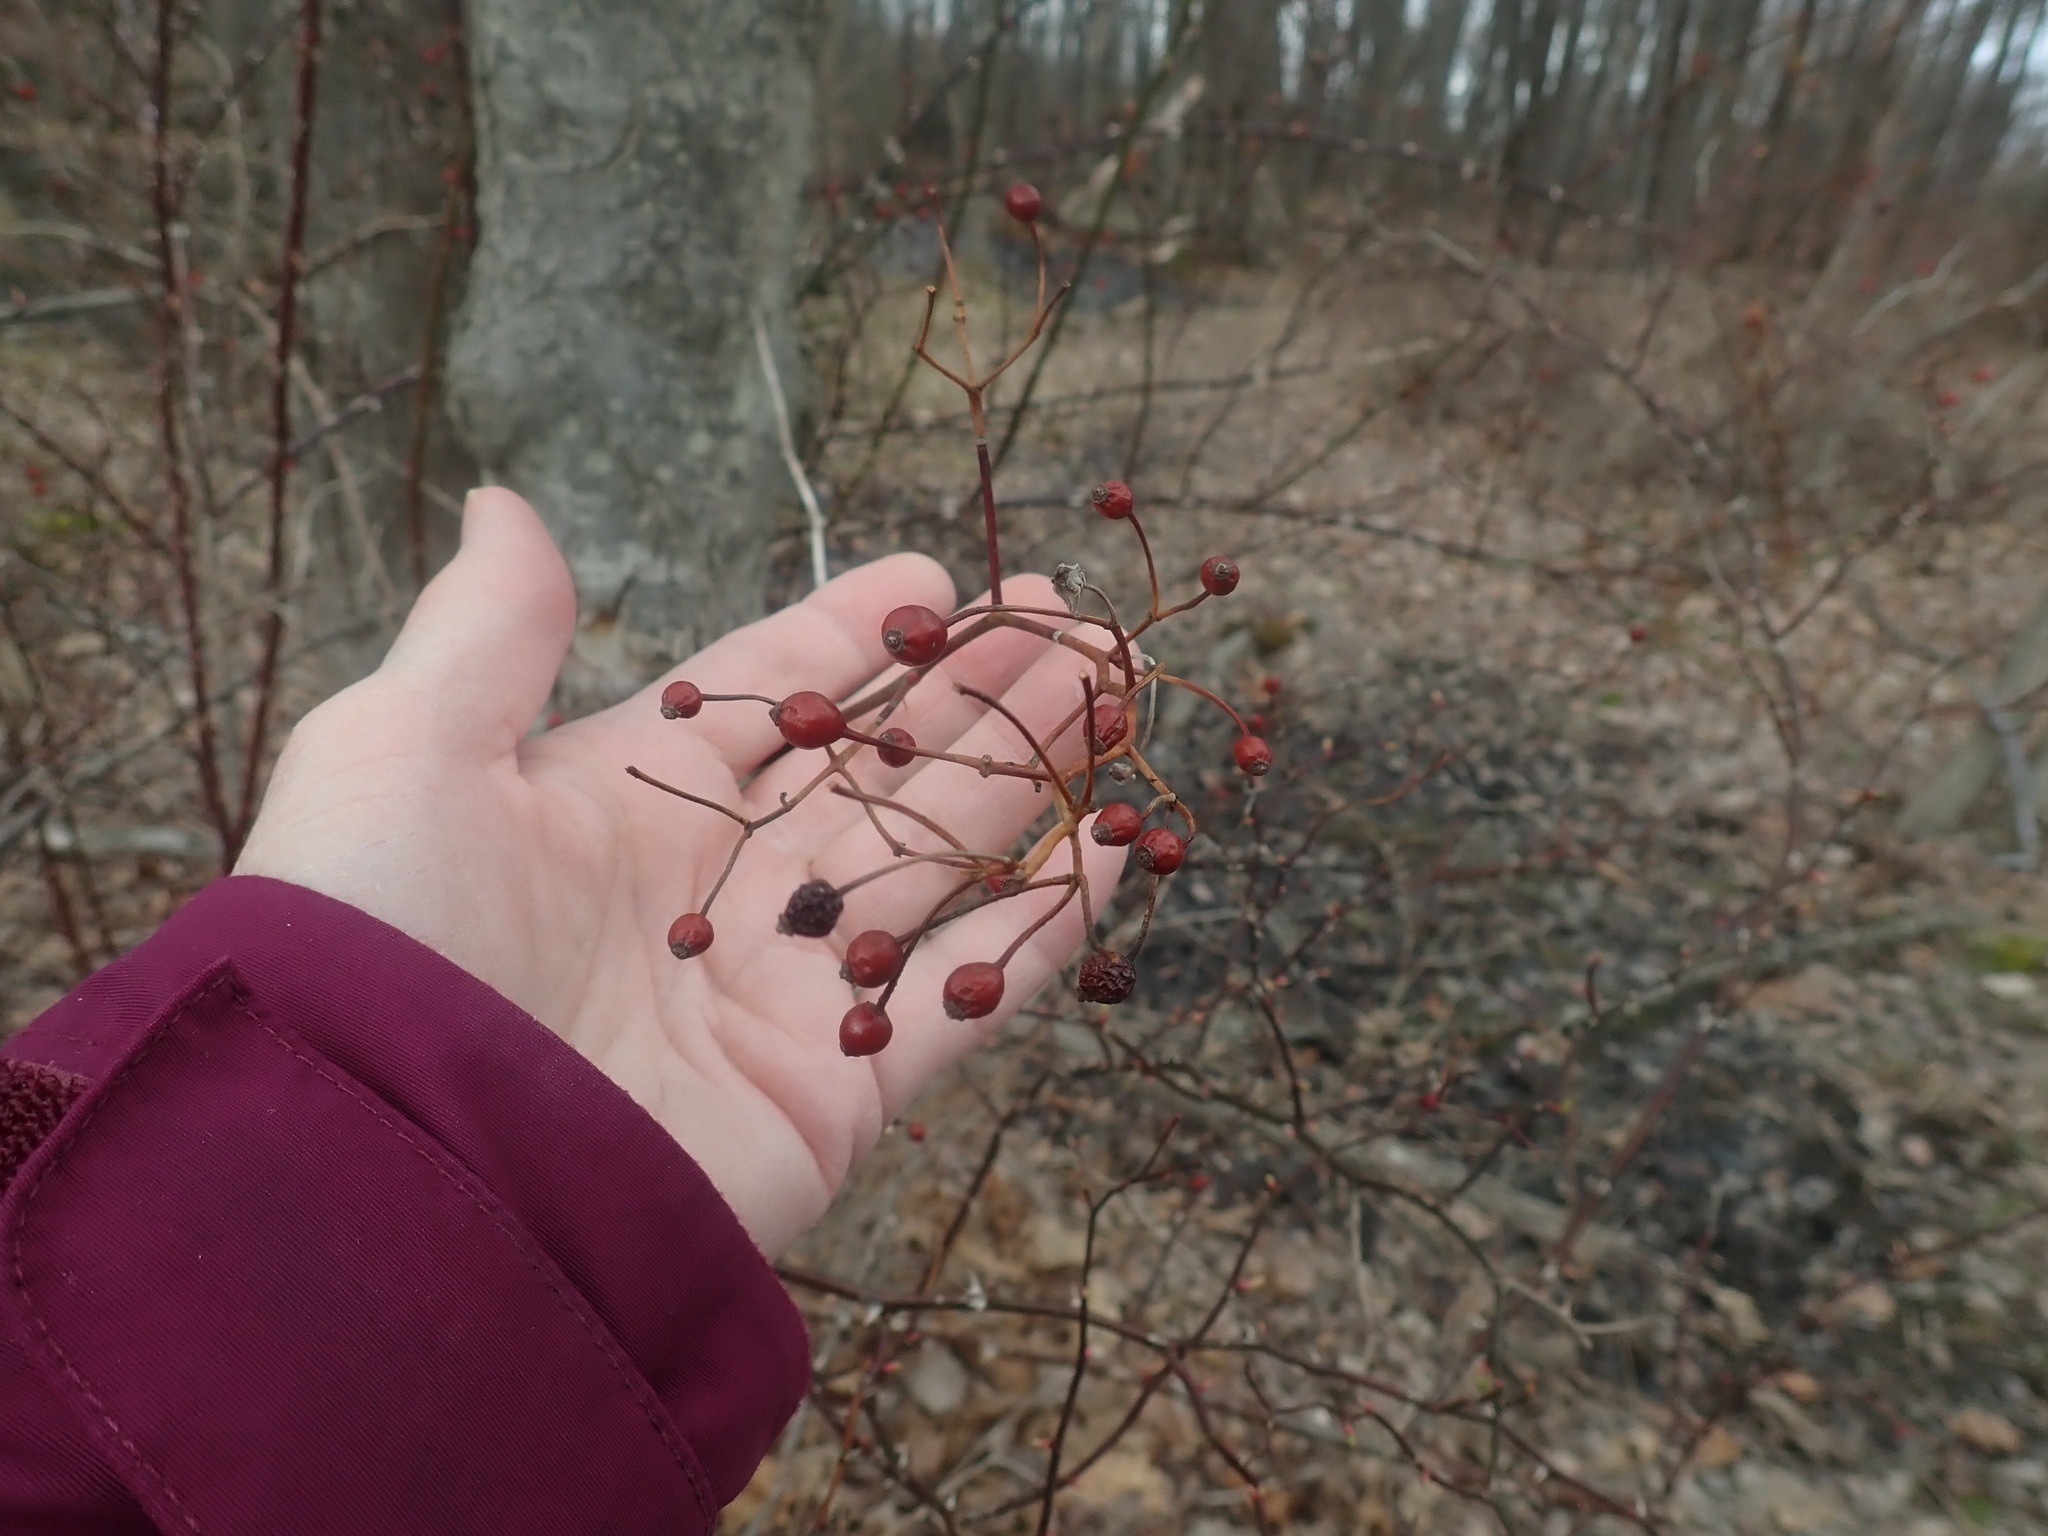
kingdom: Plantae
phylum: Tracheophyta
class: Magnoliopsida
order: Rosales
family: Rosaceae
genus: Rosa
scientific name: Rosa multiflora
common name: Multiflora rose
